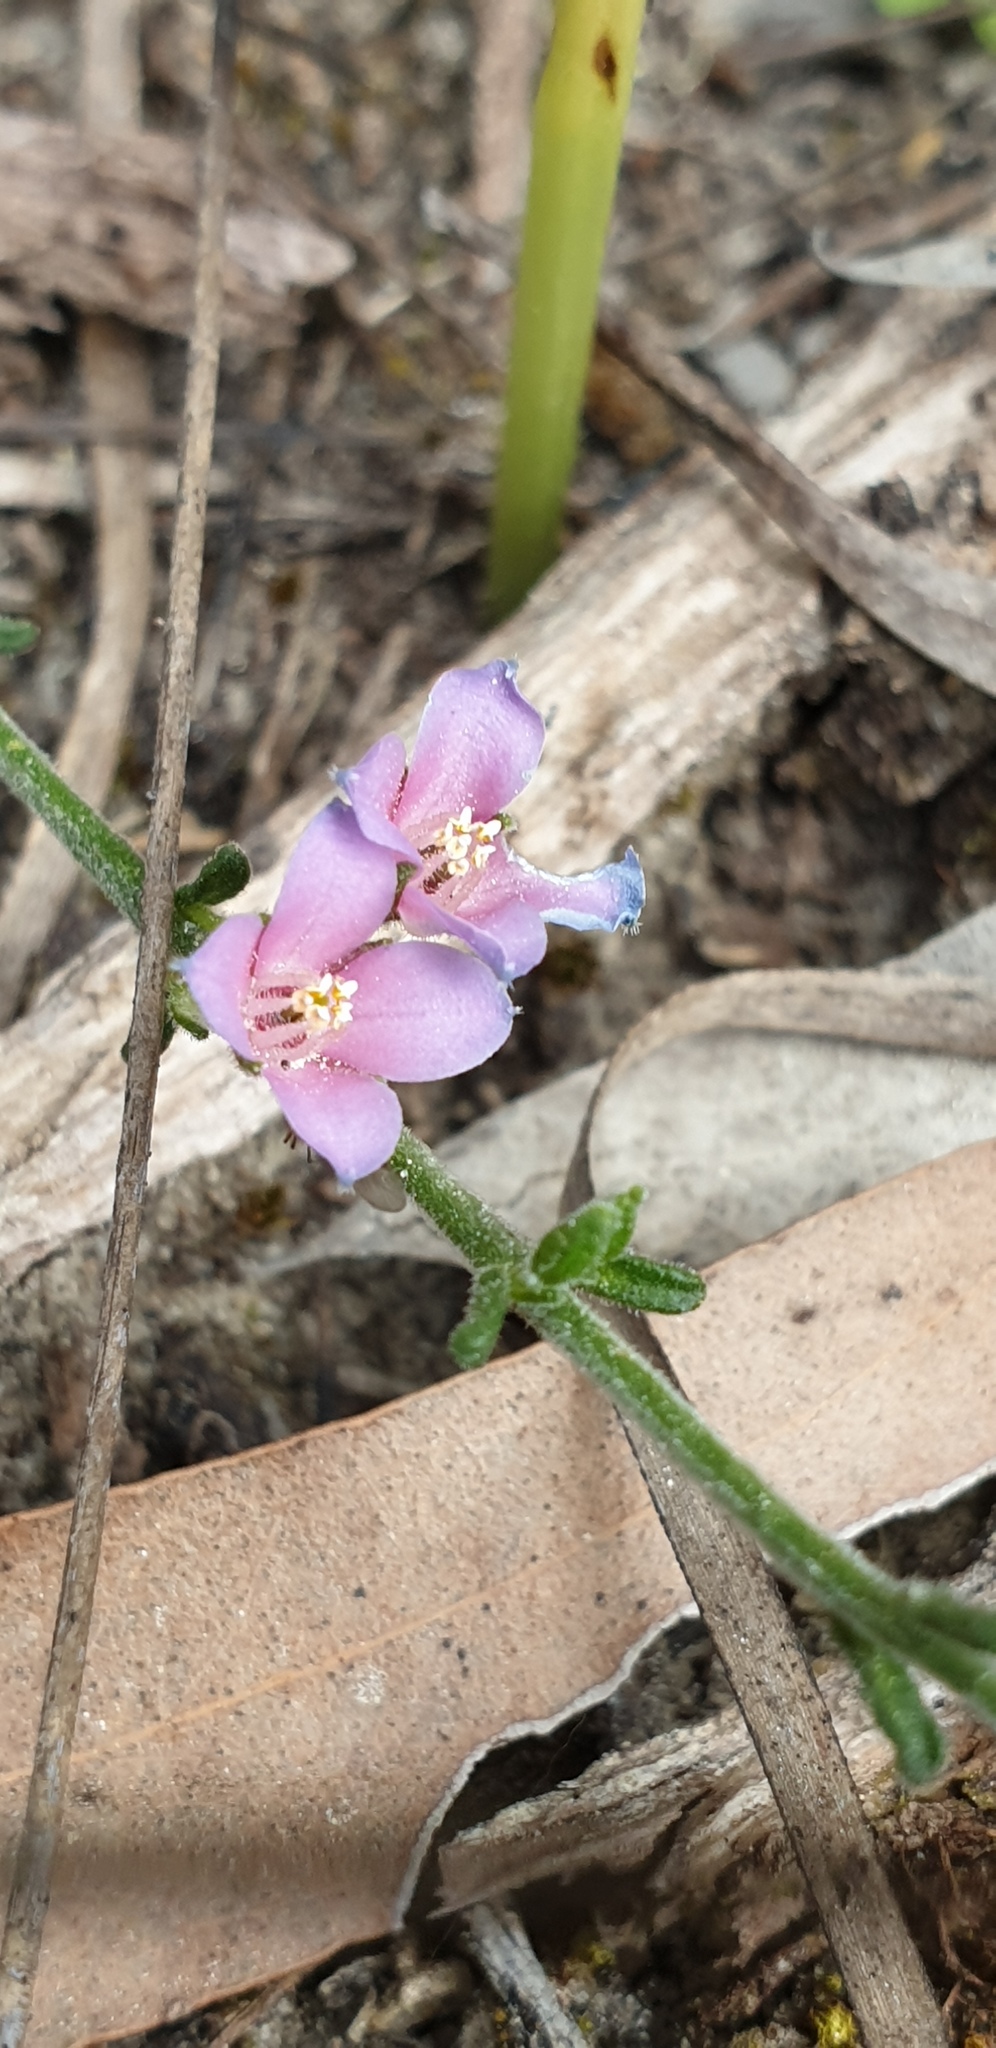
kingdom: Plantae
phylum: Tracheophyta
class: Magnoliopsida
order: Sapindales
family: Rutaceae
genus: Cyanothamnus
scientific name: Cyanothamnus coerulescens
